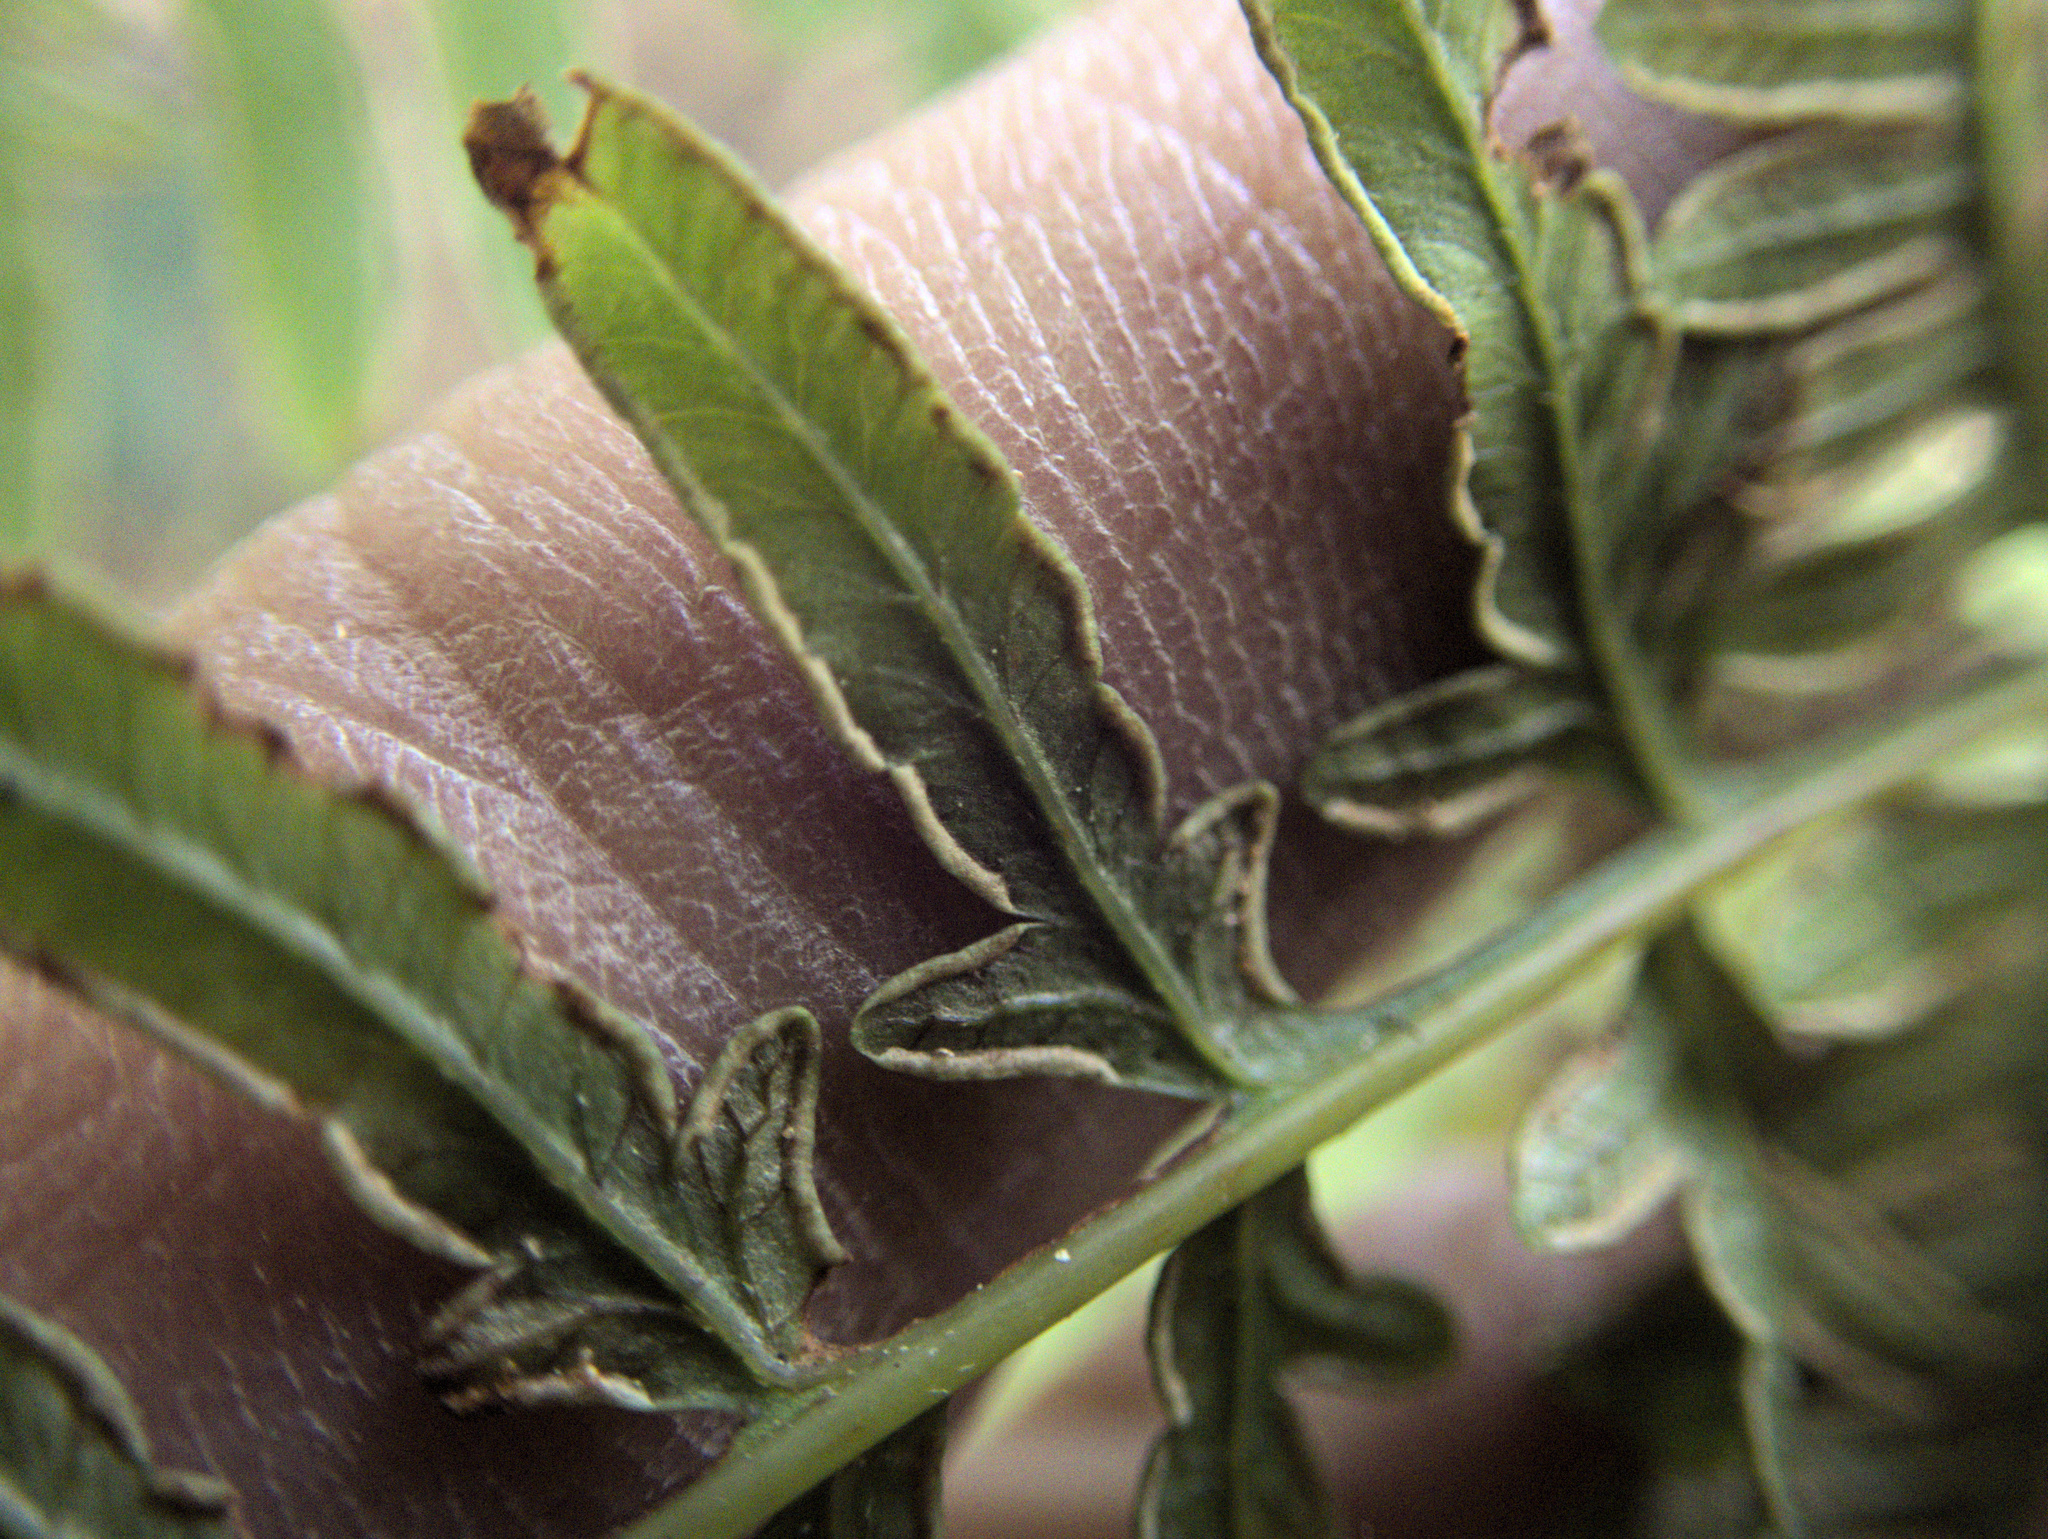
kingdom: Plantae
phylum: Tracheophyta
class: Polypodiopsida
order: Polypodiales
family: Pteridaceae
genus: Pteris
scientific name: Pteris tremula
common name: Australian brake
